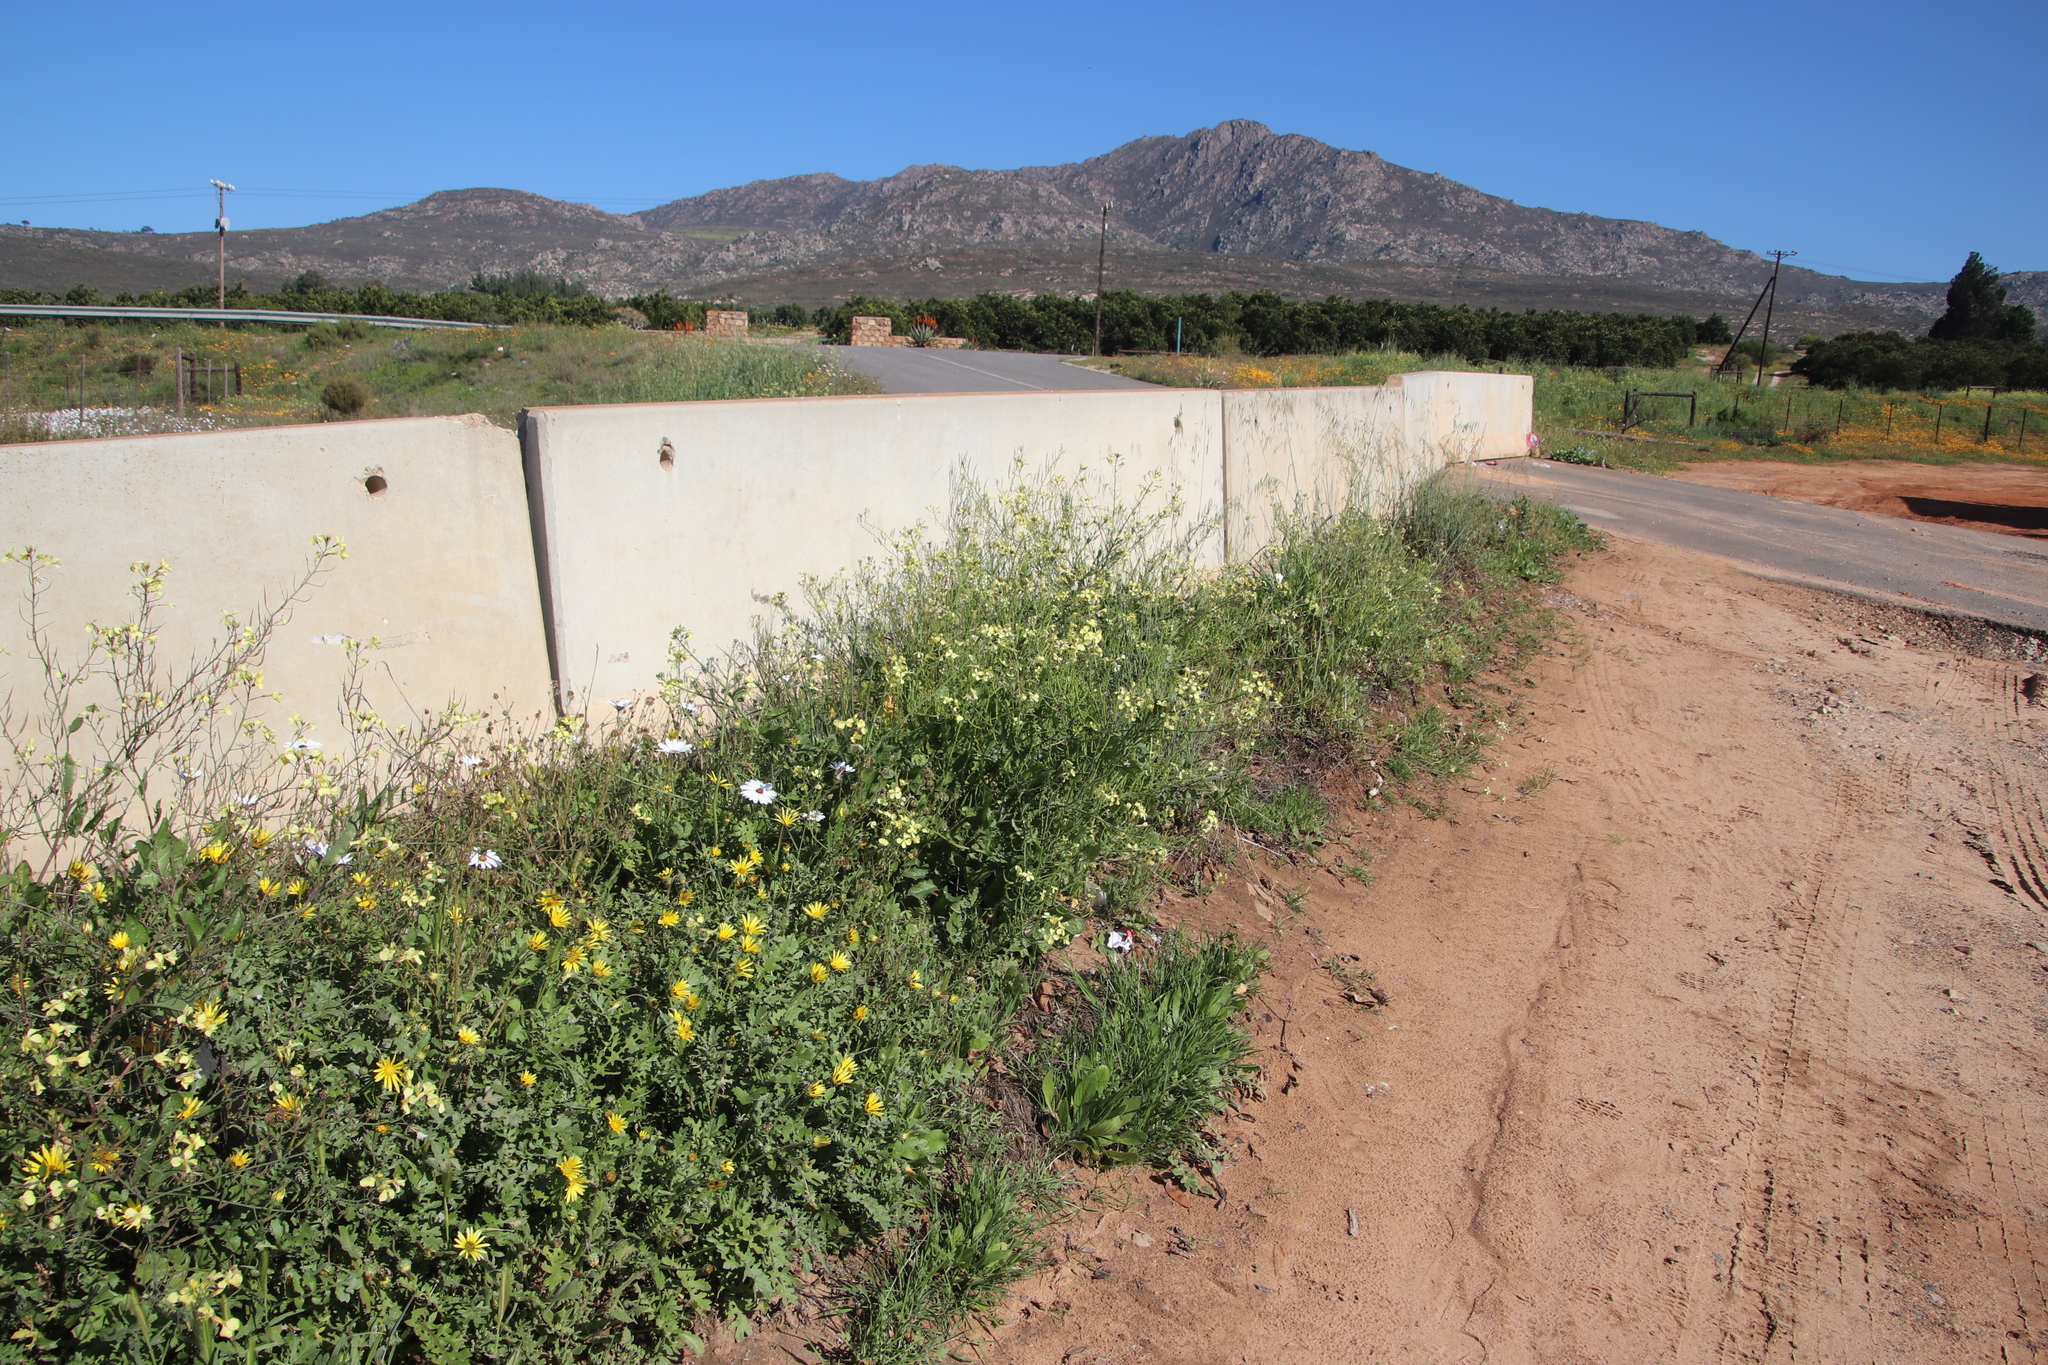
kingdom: Plantae
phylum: Tracheophyta
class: Magnoliopsida
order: Brassicales
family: Brassicaceae
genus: Raphanus
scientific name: Raphanus raphanistrum
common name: Wild radish
